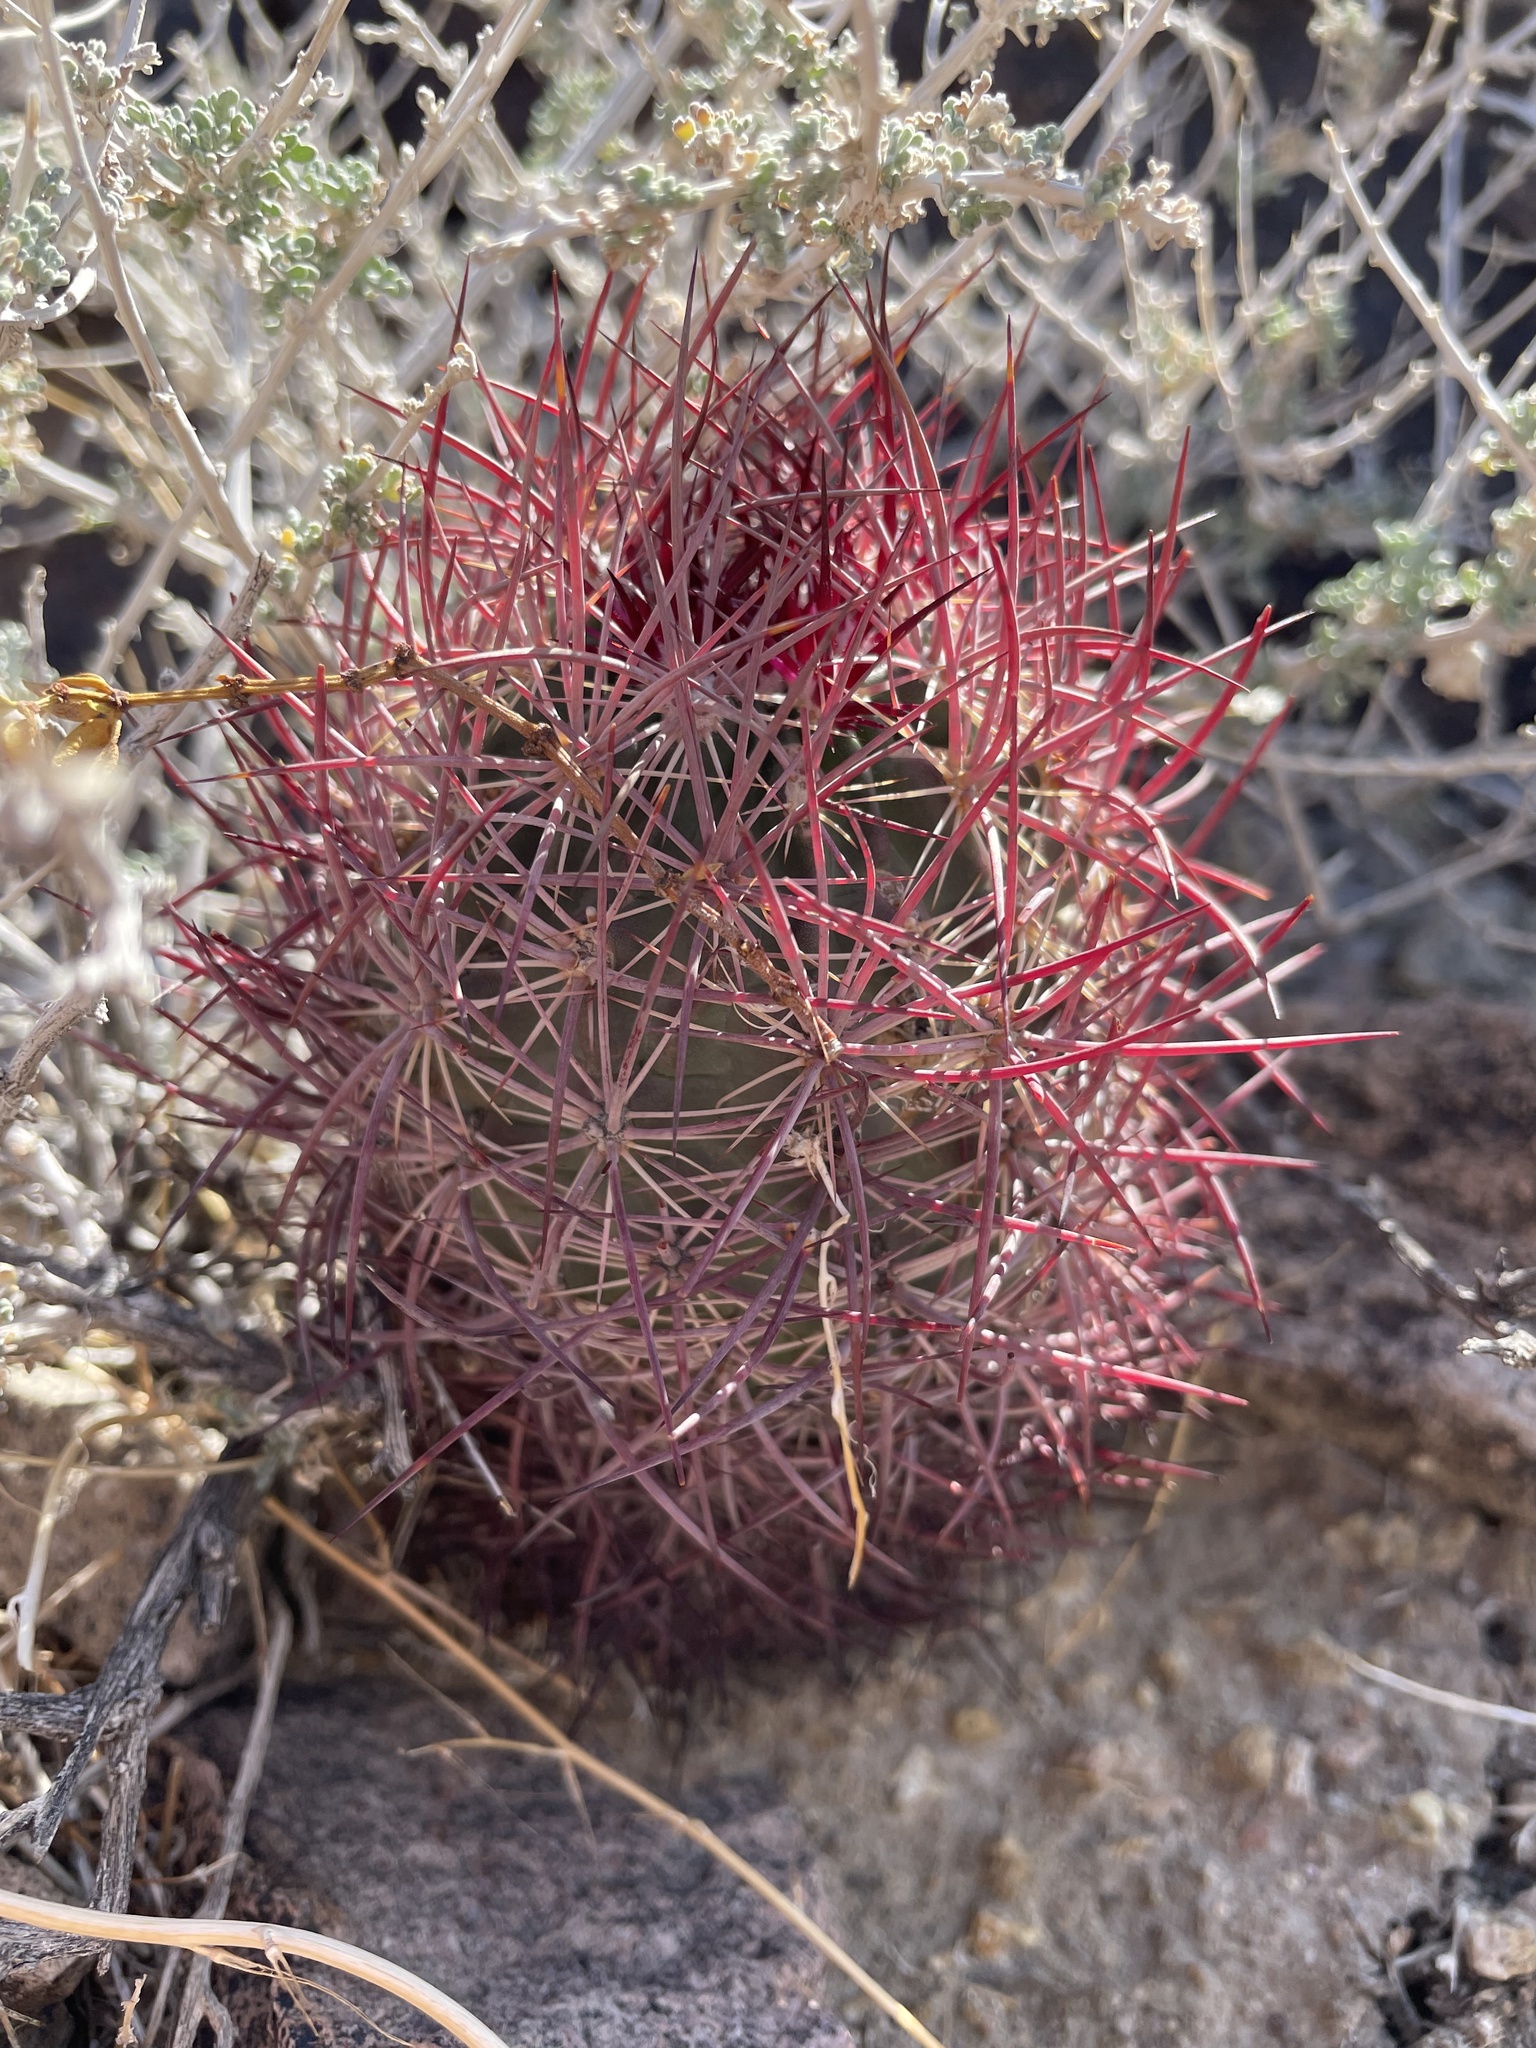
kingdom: Plantae
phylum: Tracheophyta
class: Magnoliopsida
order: Caryophyllales
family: Cactaceae
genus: Sclerocactus
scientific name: Sclerocactus johnsonii
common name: Eight-spine fishhook cactus
